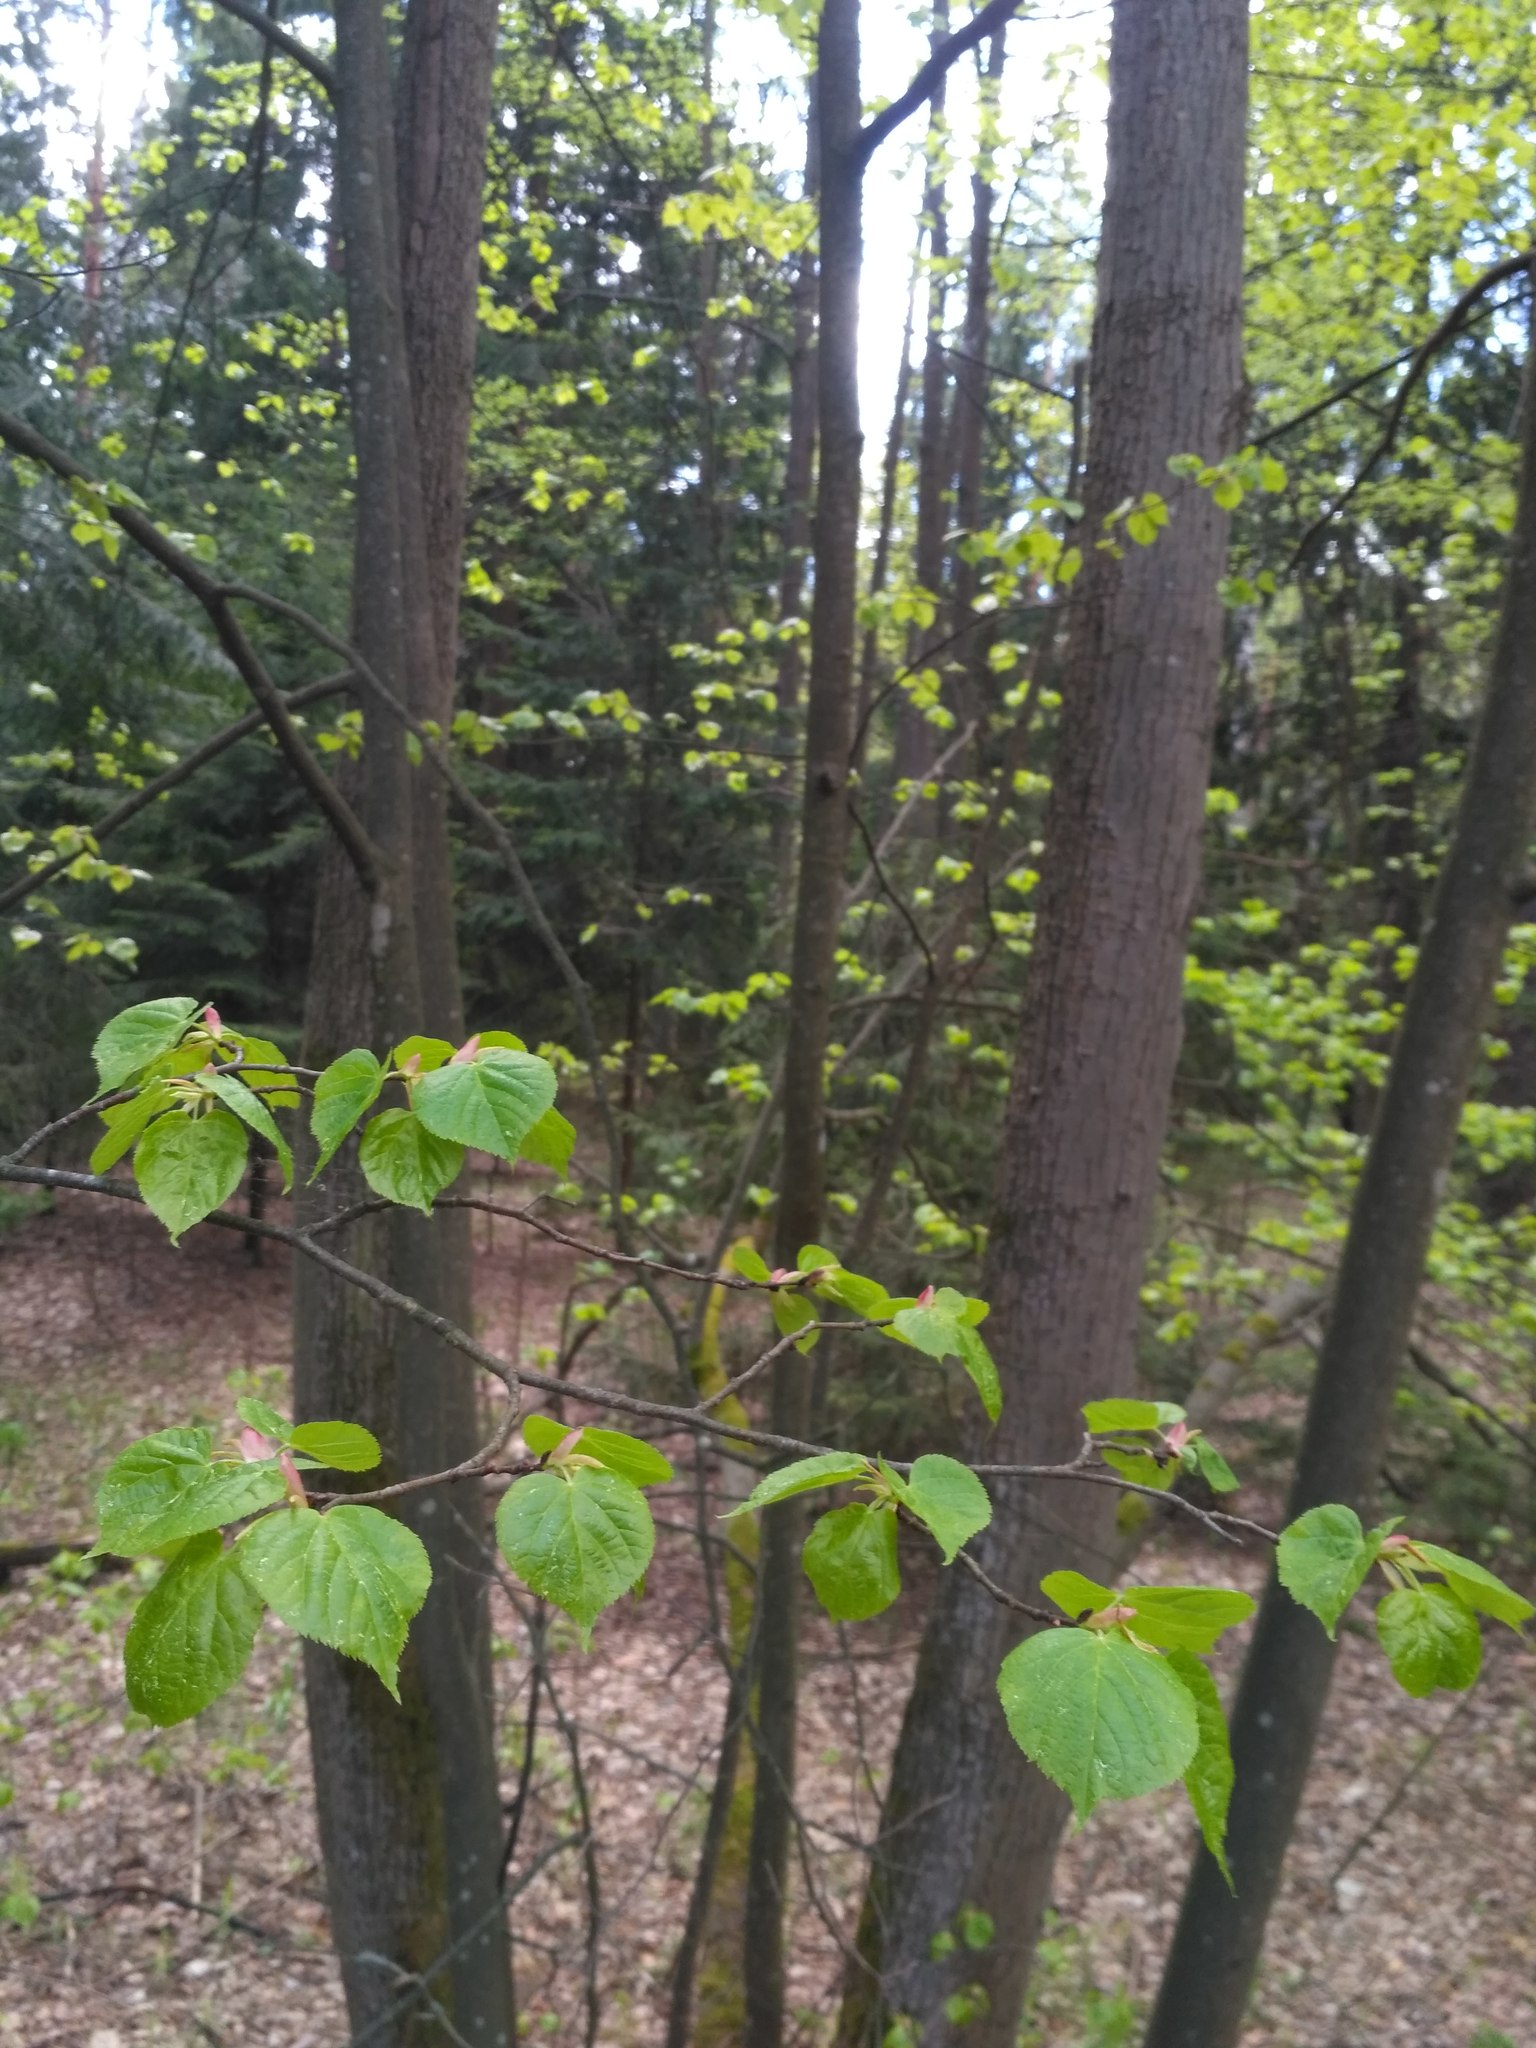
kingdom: Plantae
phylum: Tracheophyta
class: Magnoliopsida
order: Malvales
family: Malvaceae
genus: Tilia
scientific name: Tilia cordata
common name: Small-leaved lime
